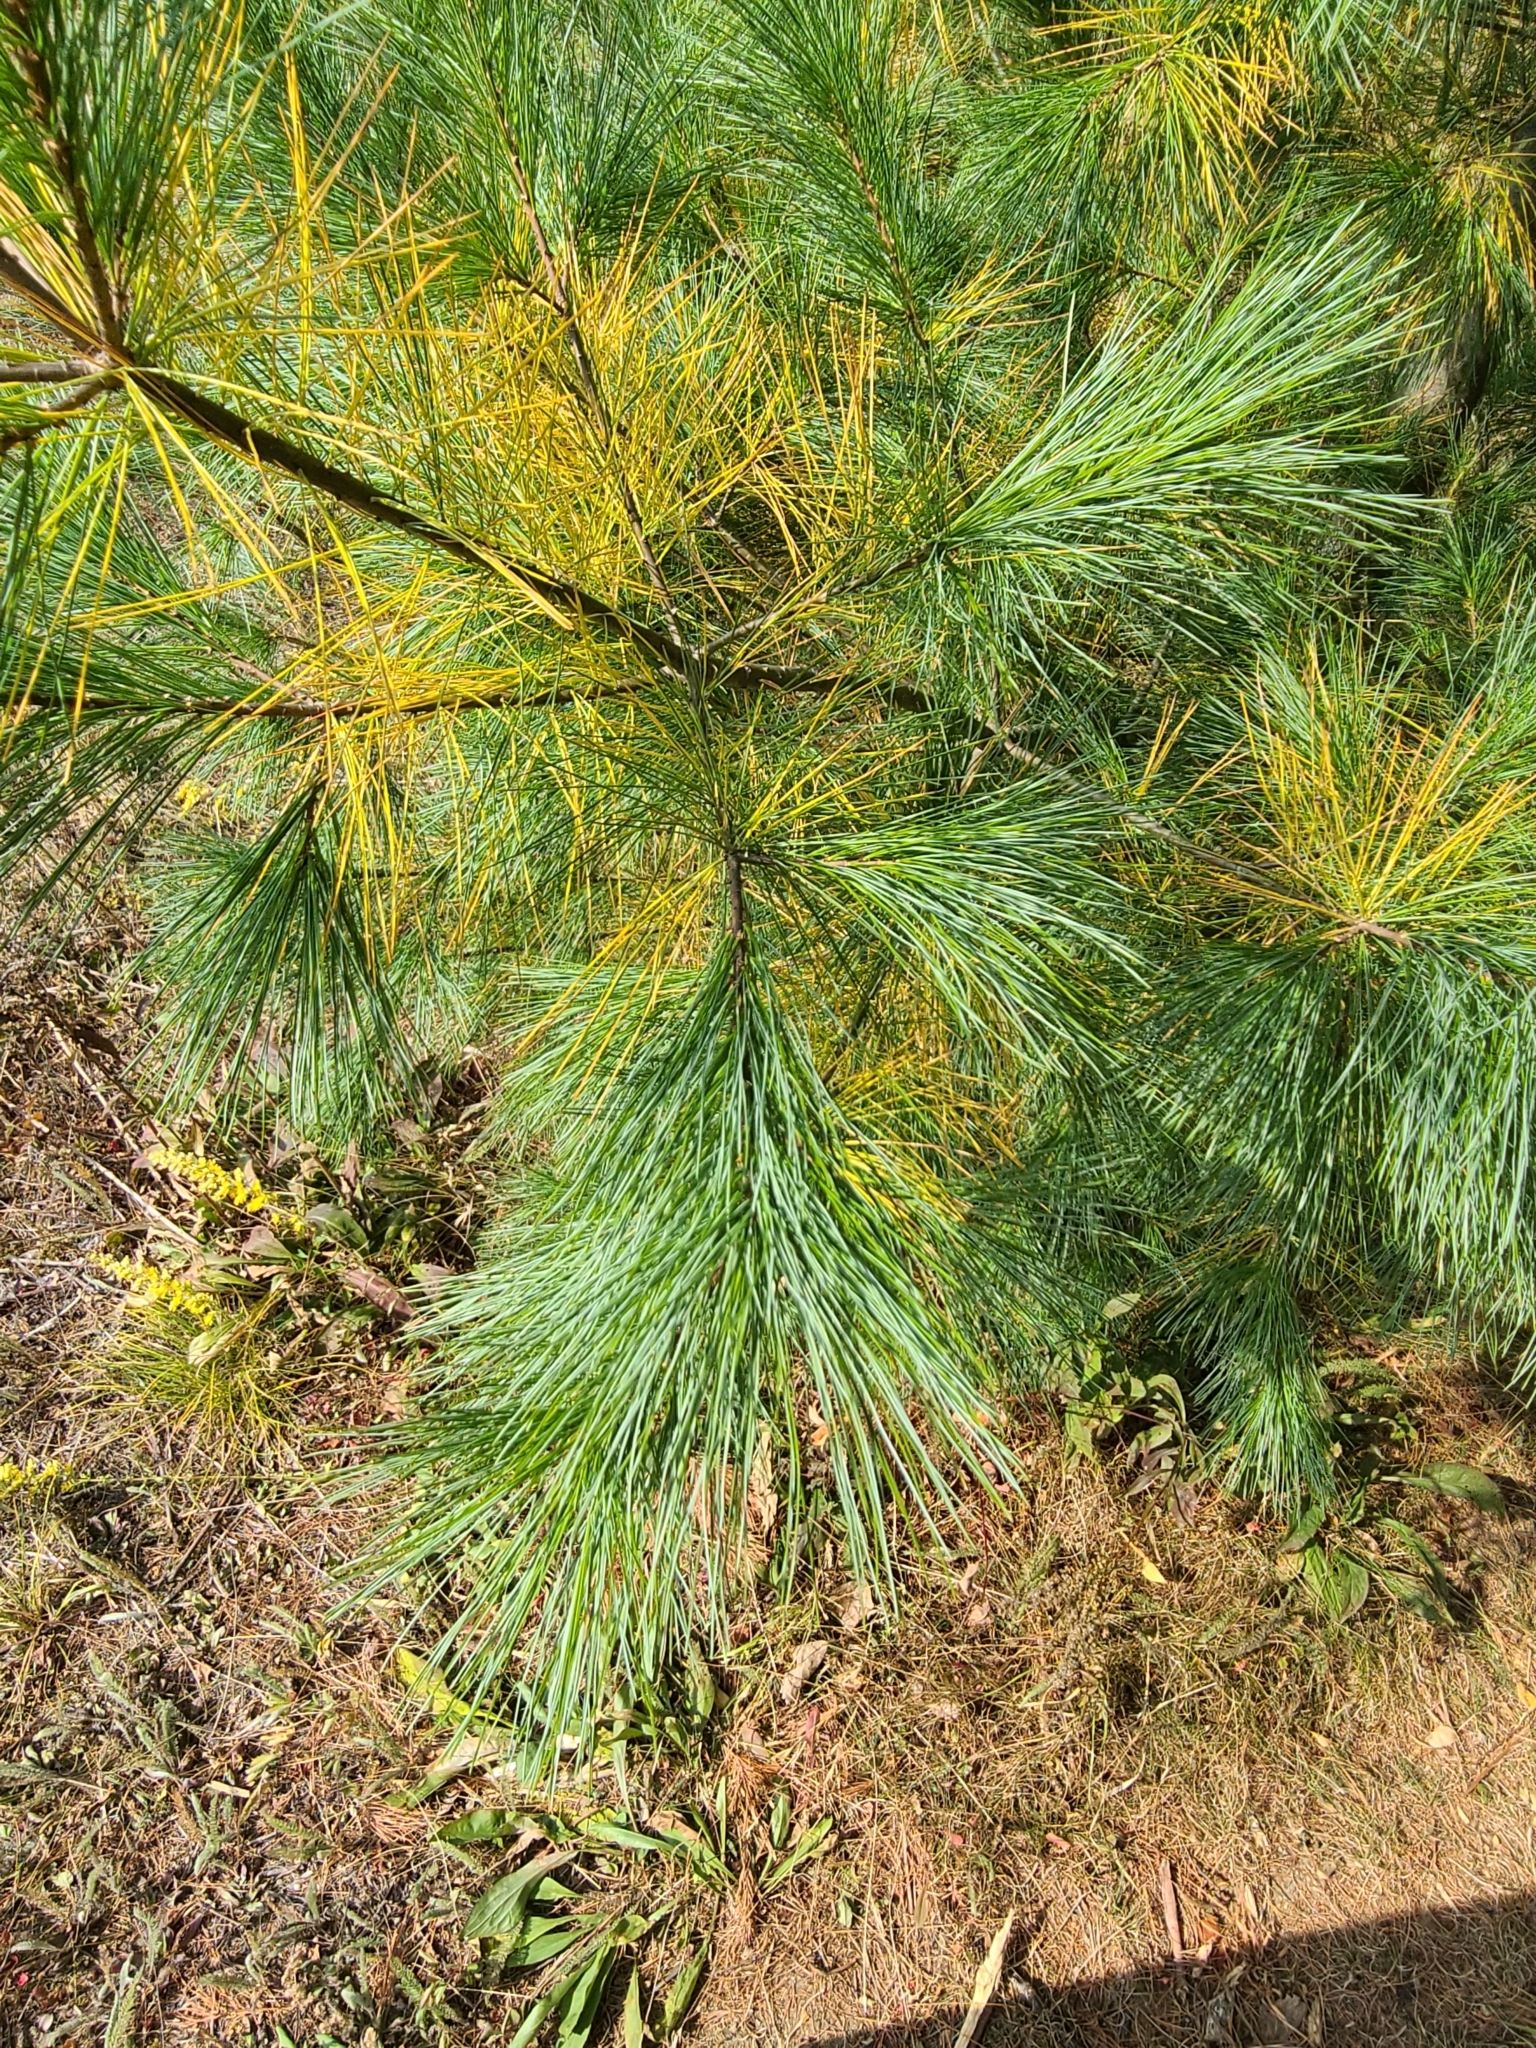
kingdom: Plantae
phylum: Tracheophyta
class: Pinopsida
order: Pinales
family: Pinaceae
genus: Pinus
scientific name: Pinus strobus
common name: Weymouth pine
